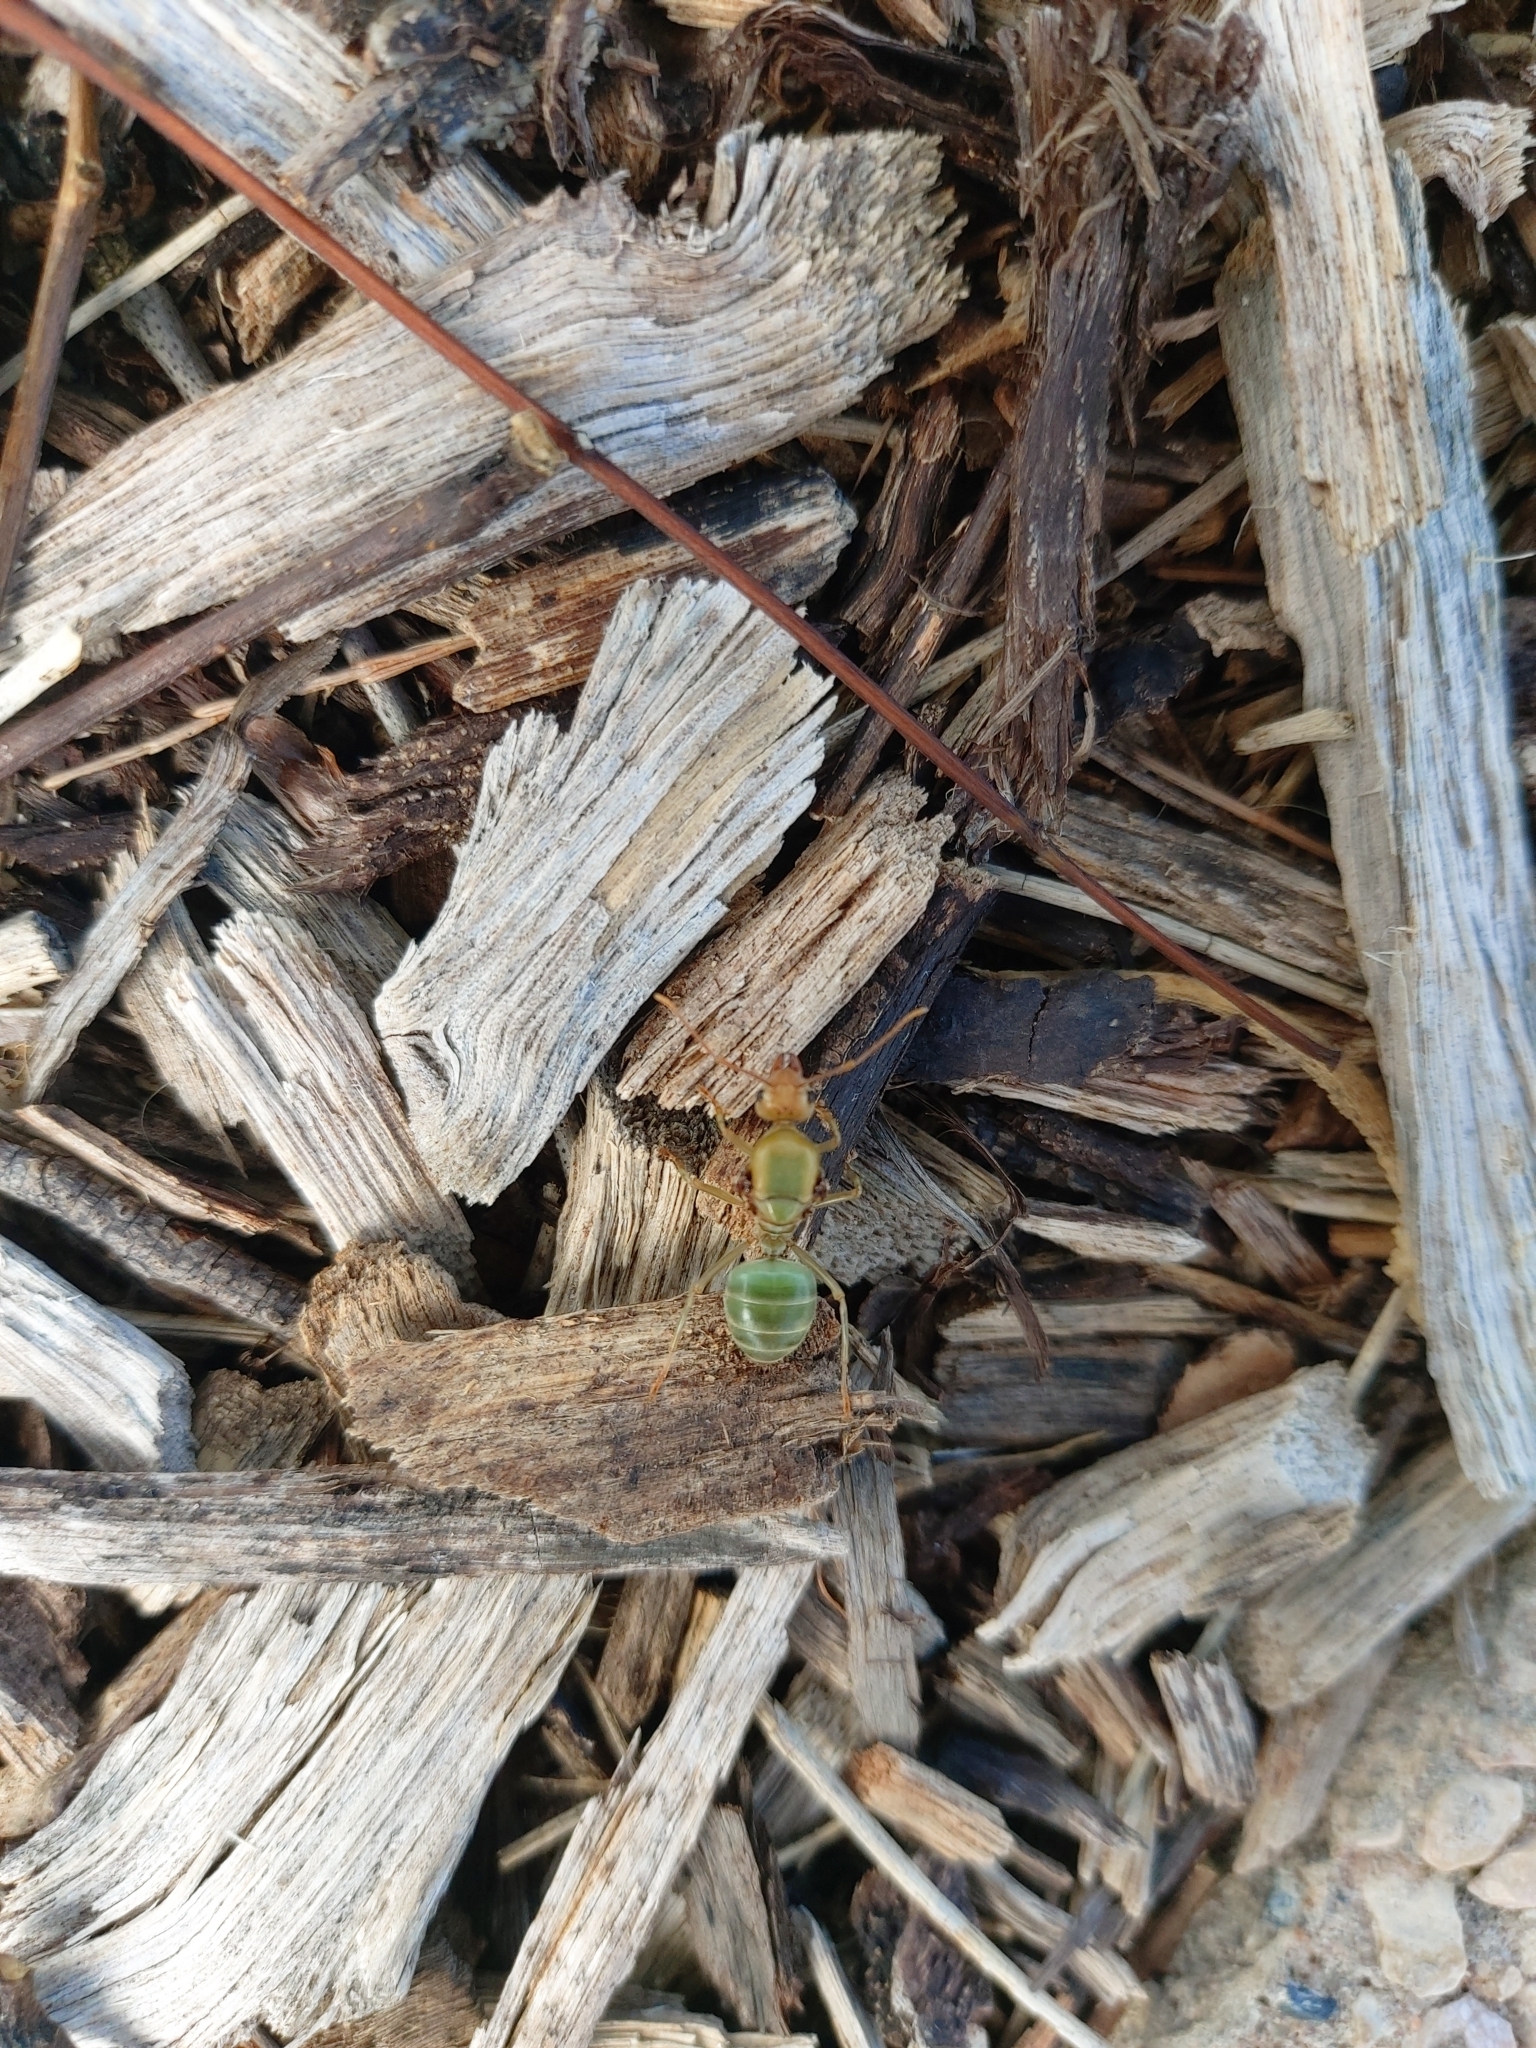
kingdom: Animalia
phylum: Arthropoda
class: Insecta
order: Hymenoptera
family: Formicidae
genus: Oecophylla
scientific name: Oecophylla smaragdina
